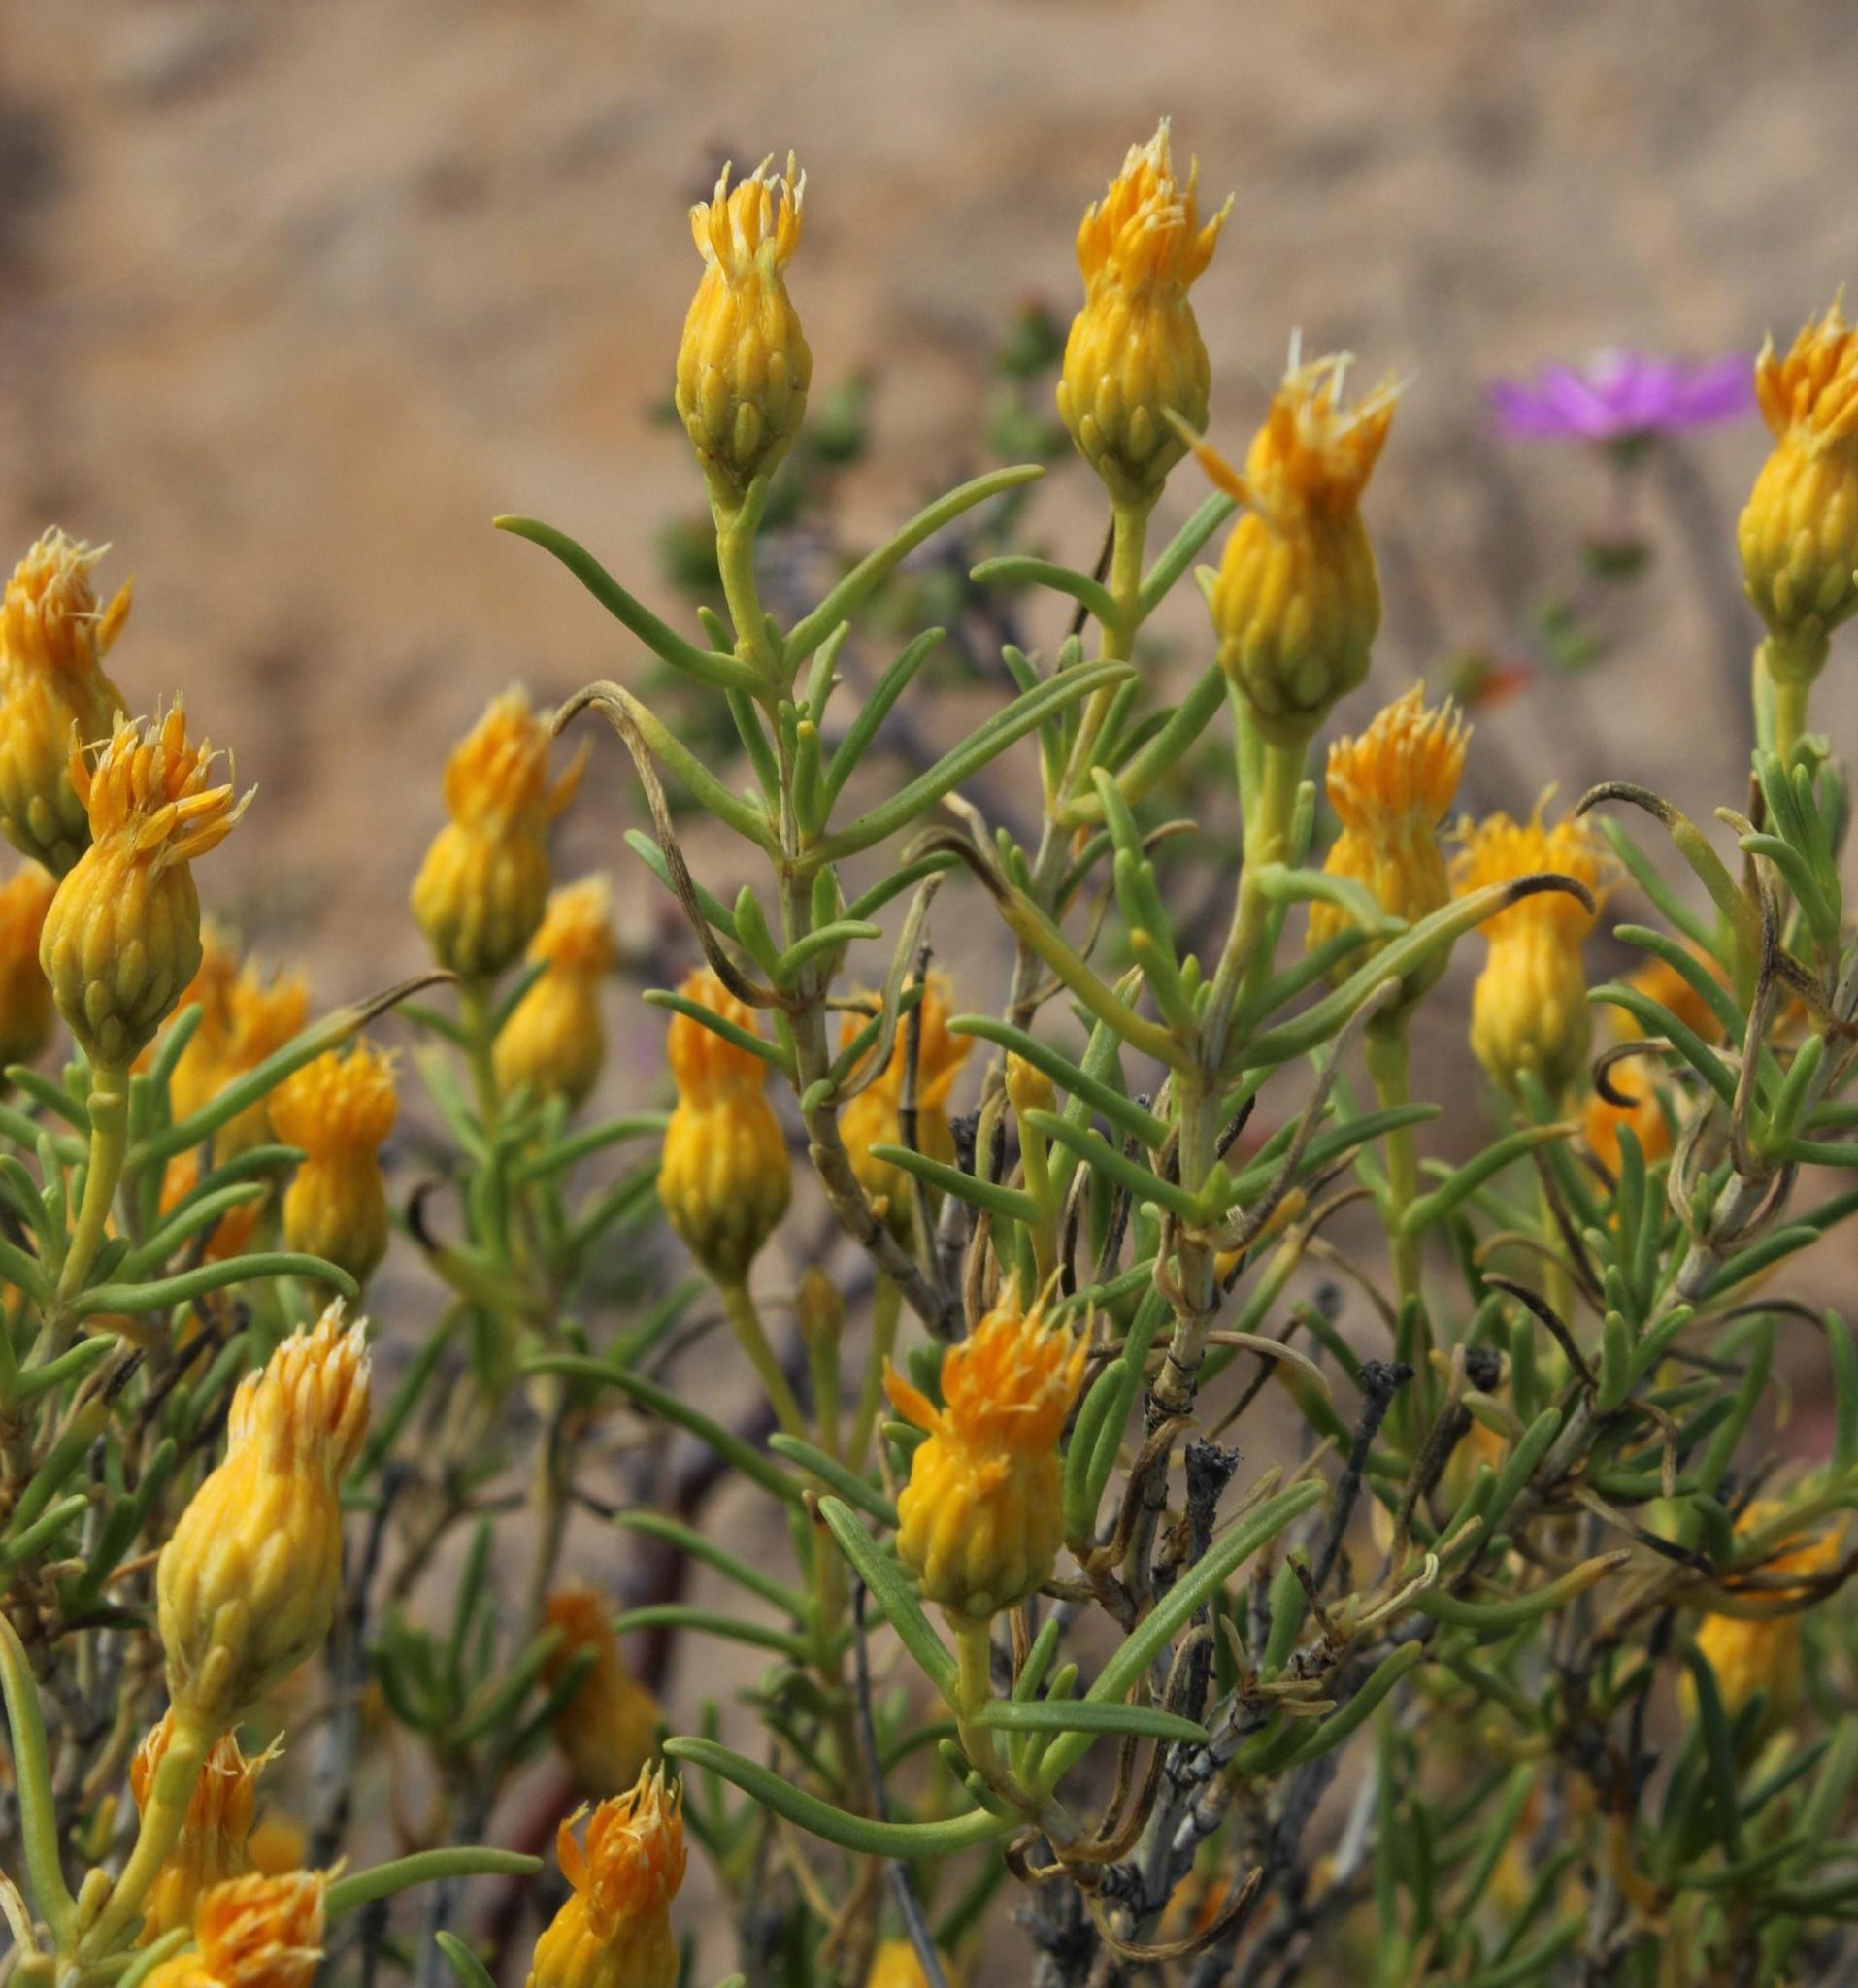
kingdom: Plantae
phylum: Tracheophyta
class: Magnoliopsida
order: Asterales
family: Asteraceae
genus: Pteronia
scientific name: Pteronia pallens
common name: Scholtzbush
